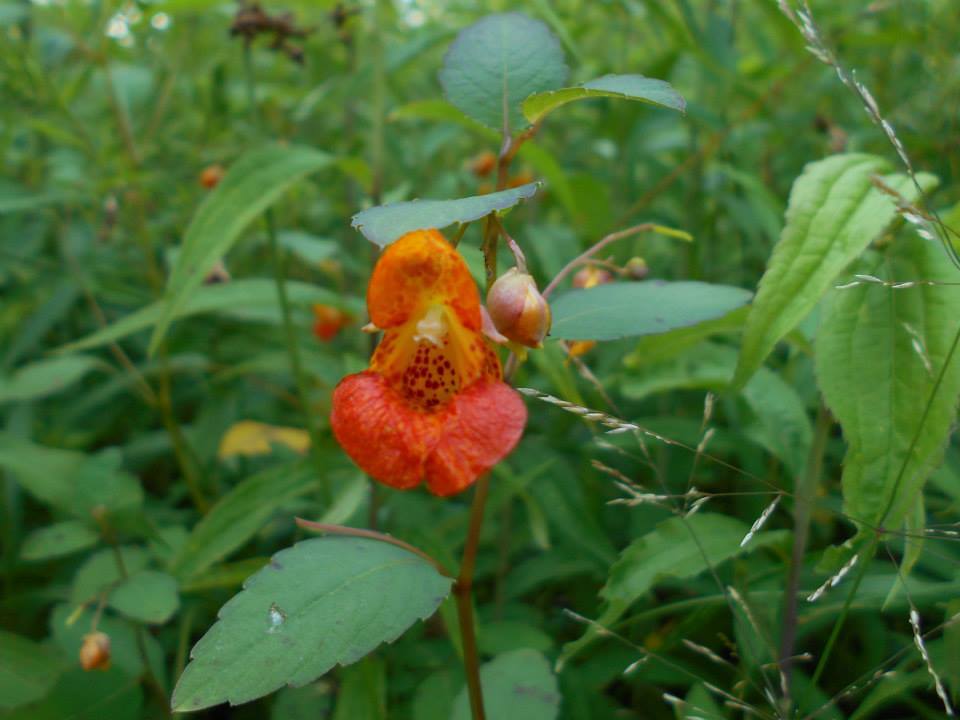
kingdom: Plantae
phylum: Tracheophyta
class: Magnoliopsida
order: Ericales
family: Balsaminaceae
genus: Impatiens
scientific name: Impatiens capensis
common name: Orange balsam
